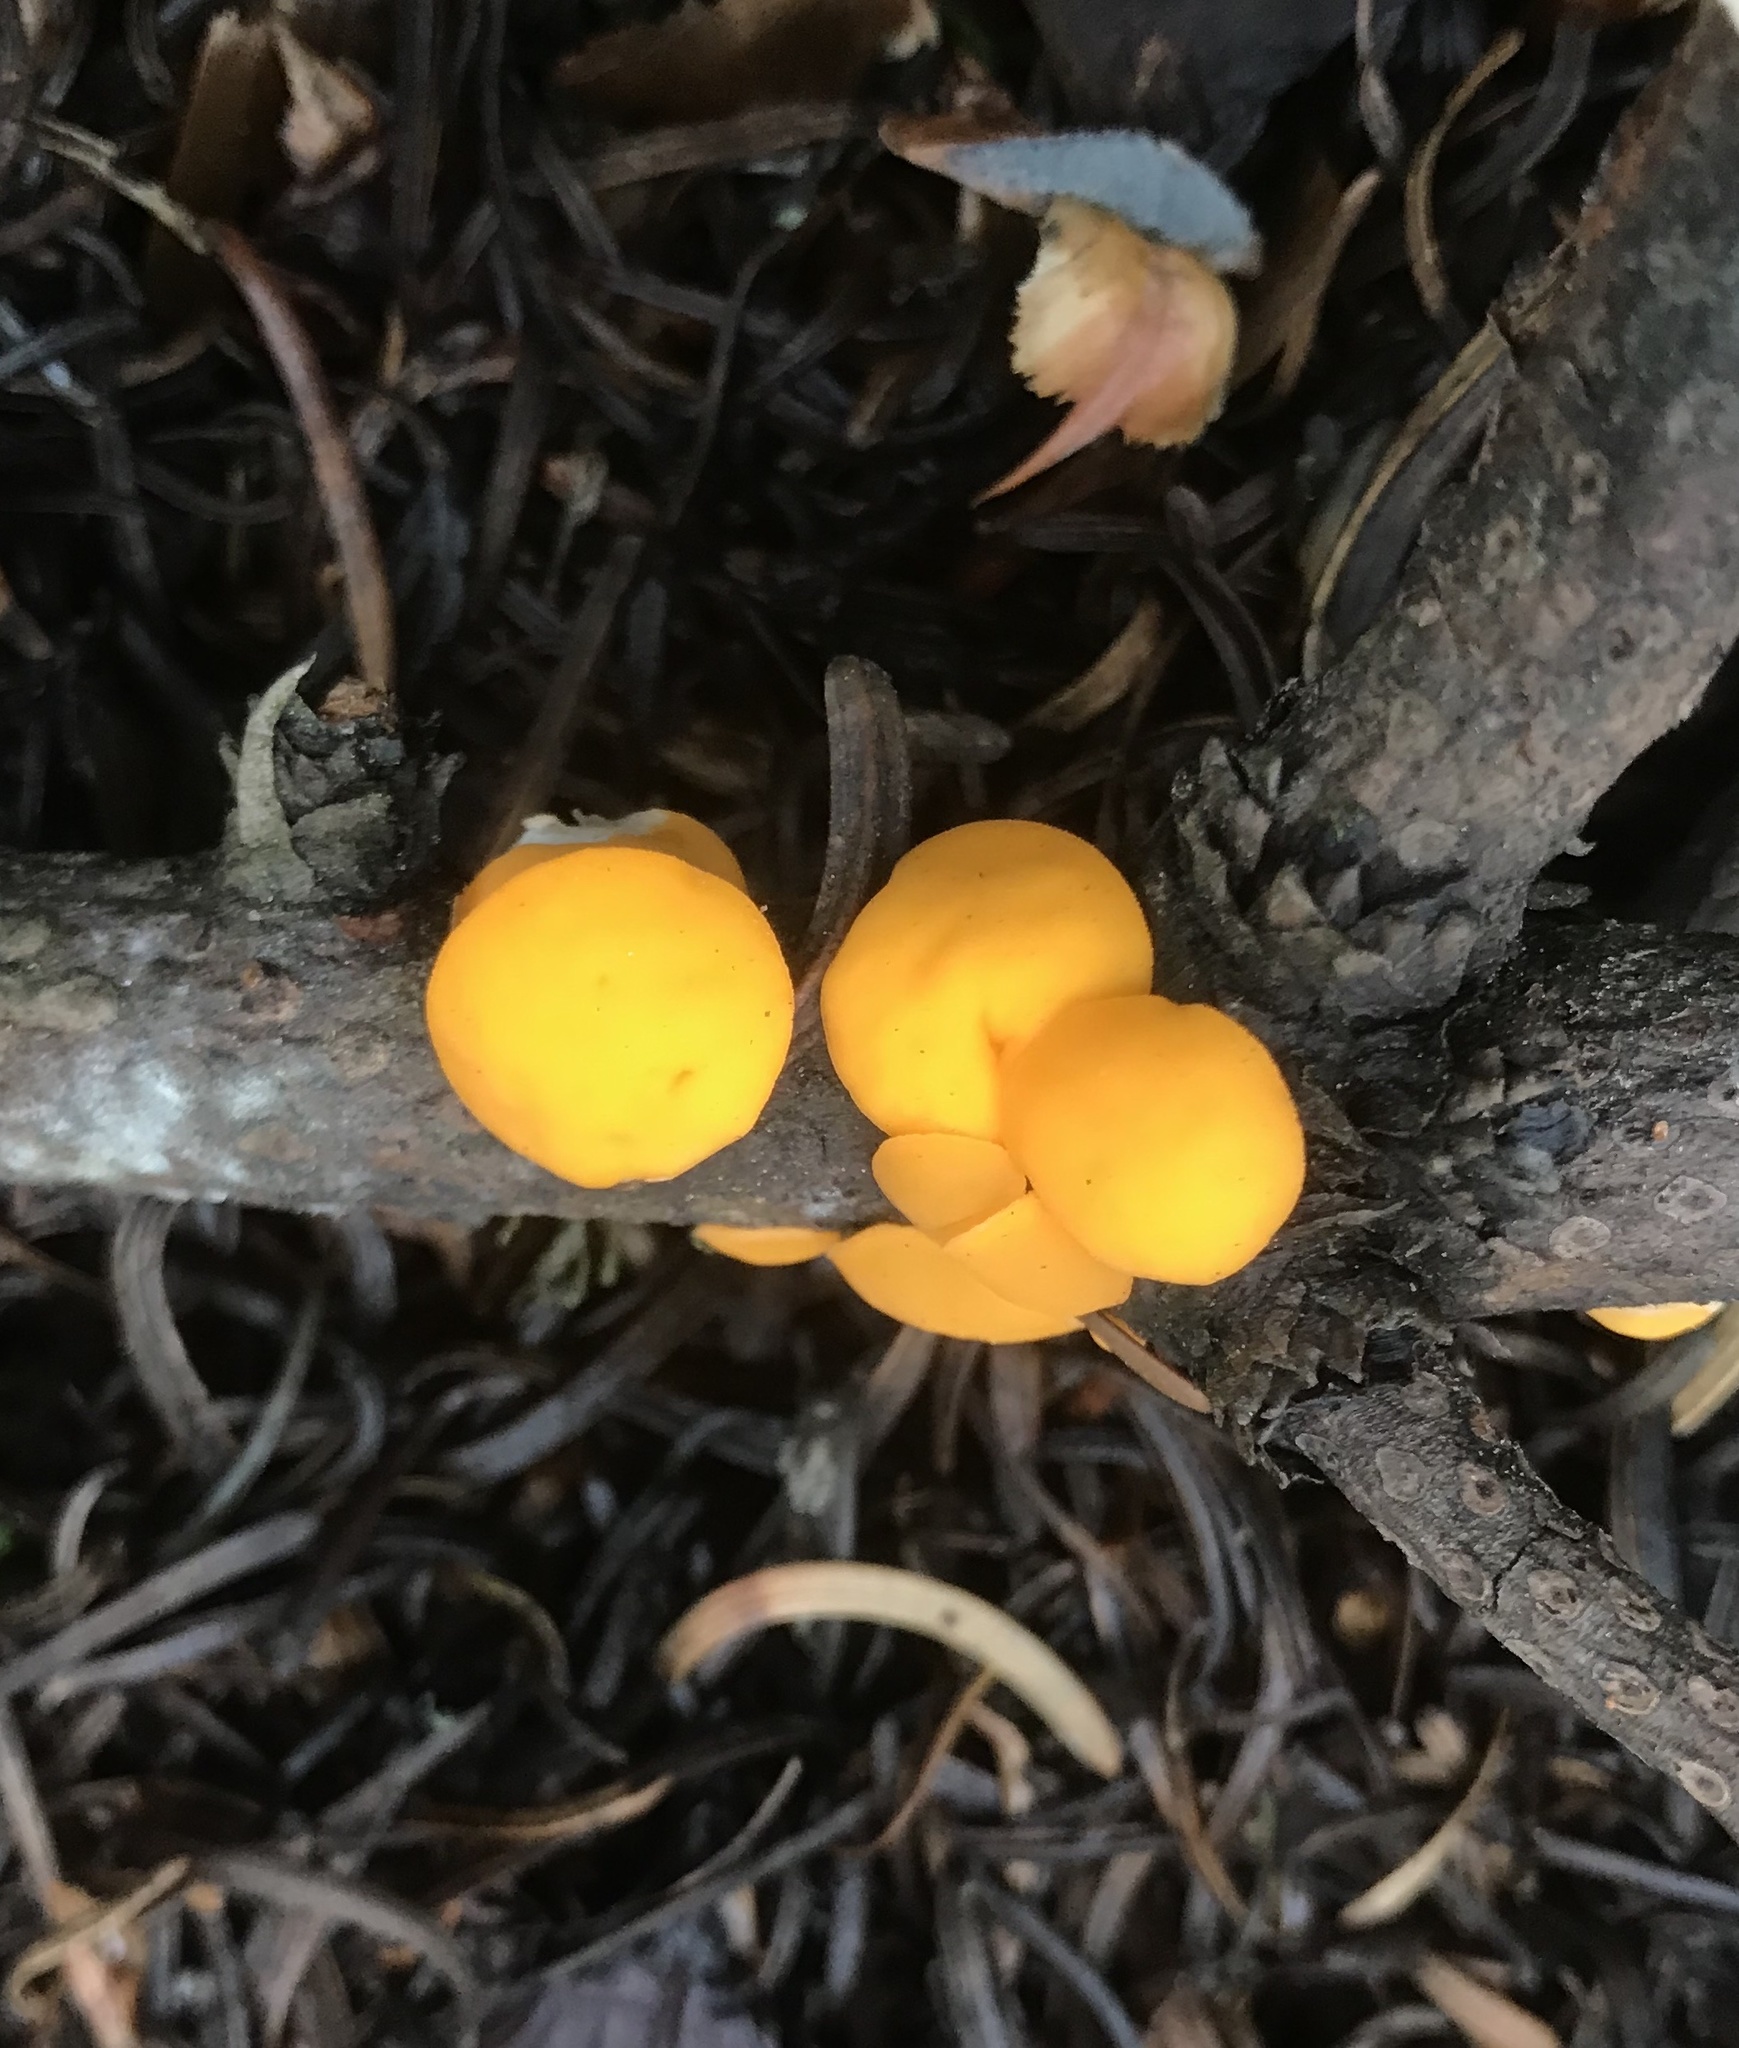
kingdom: Fungi
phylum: Ascomycota
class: Pezizomycetes
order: Pezizales
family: Sarcoscyphaceae
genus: Pithya
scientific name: Pithya vulgaris
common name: Fir disco
